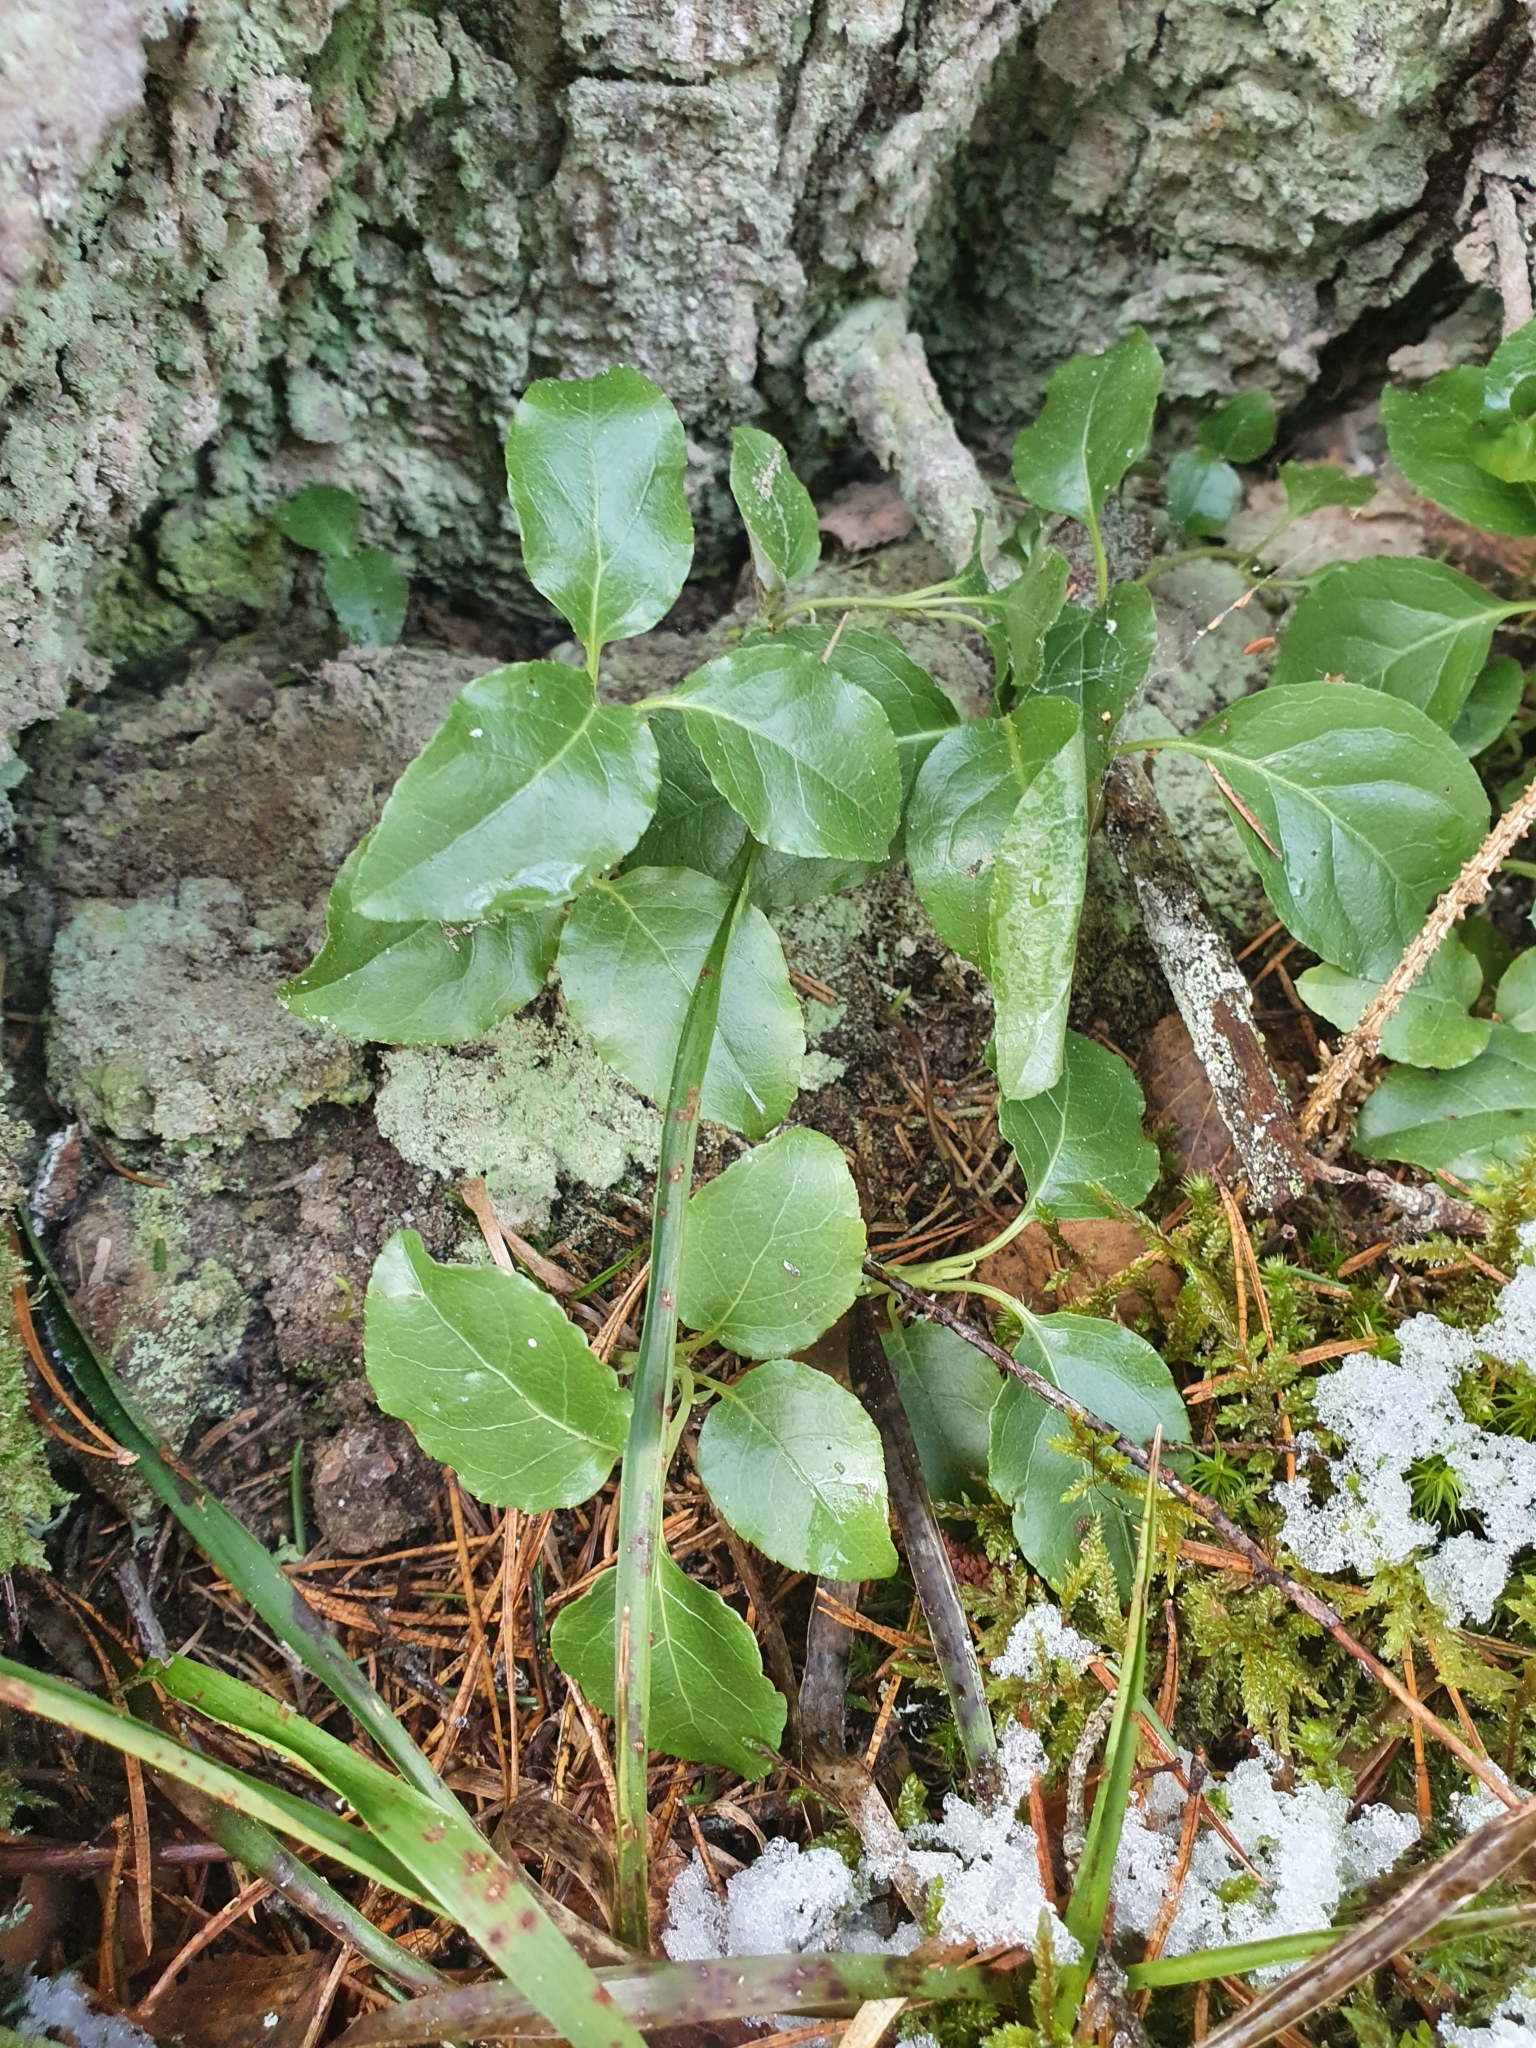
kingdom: Plantae
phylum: Tracheophyta
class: Magnoliopsida
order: Ericales
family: Ericaceae
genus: Orthilia
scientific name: Orthilia secunda
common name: One-sided orthilia
